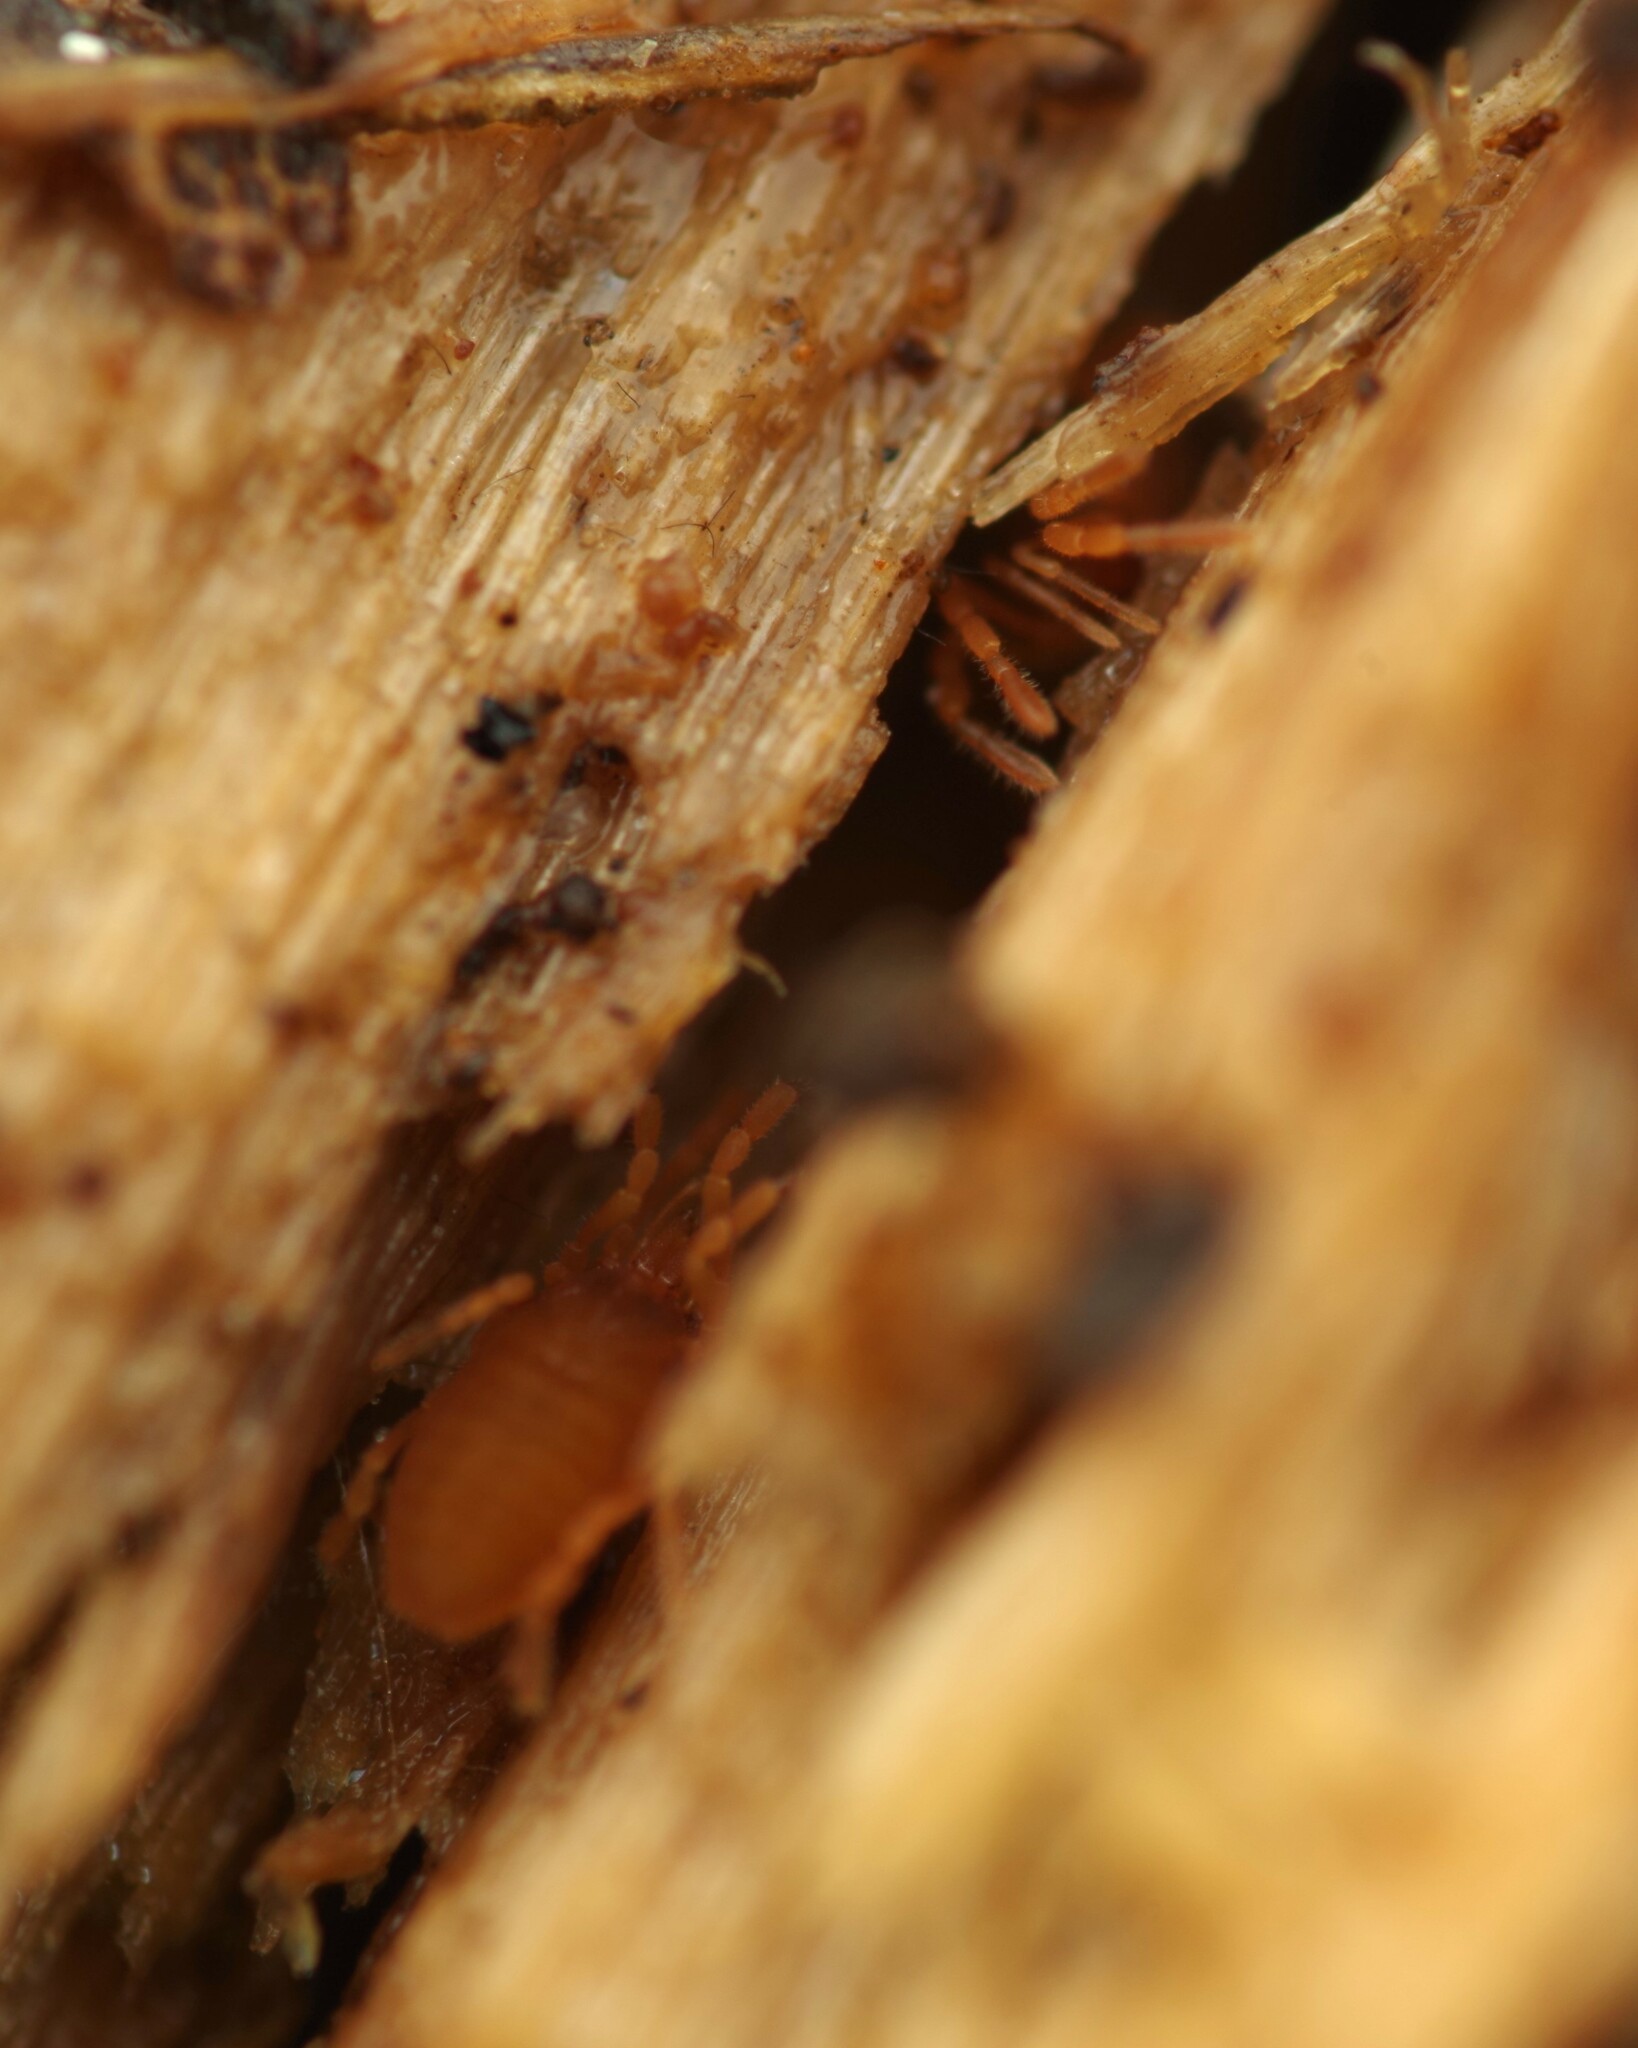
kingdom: Animalia
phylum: Arthropoda
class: Arachnida
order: Opiliones
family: Sironidae
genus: Siro
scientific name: Siro rubens
